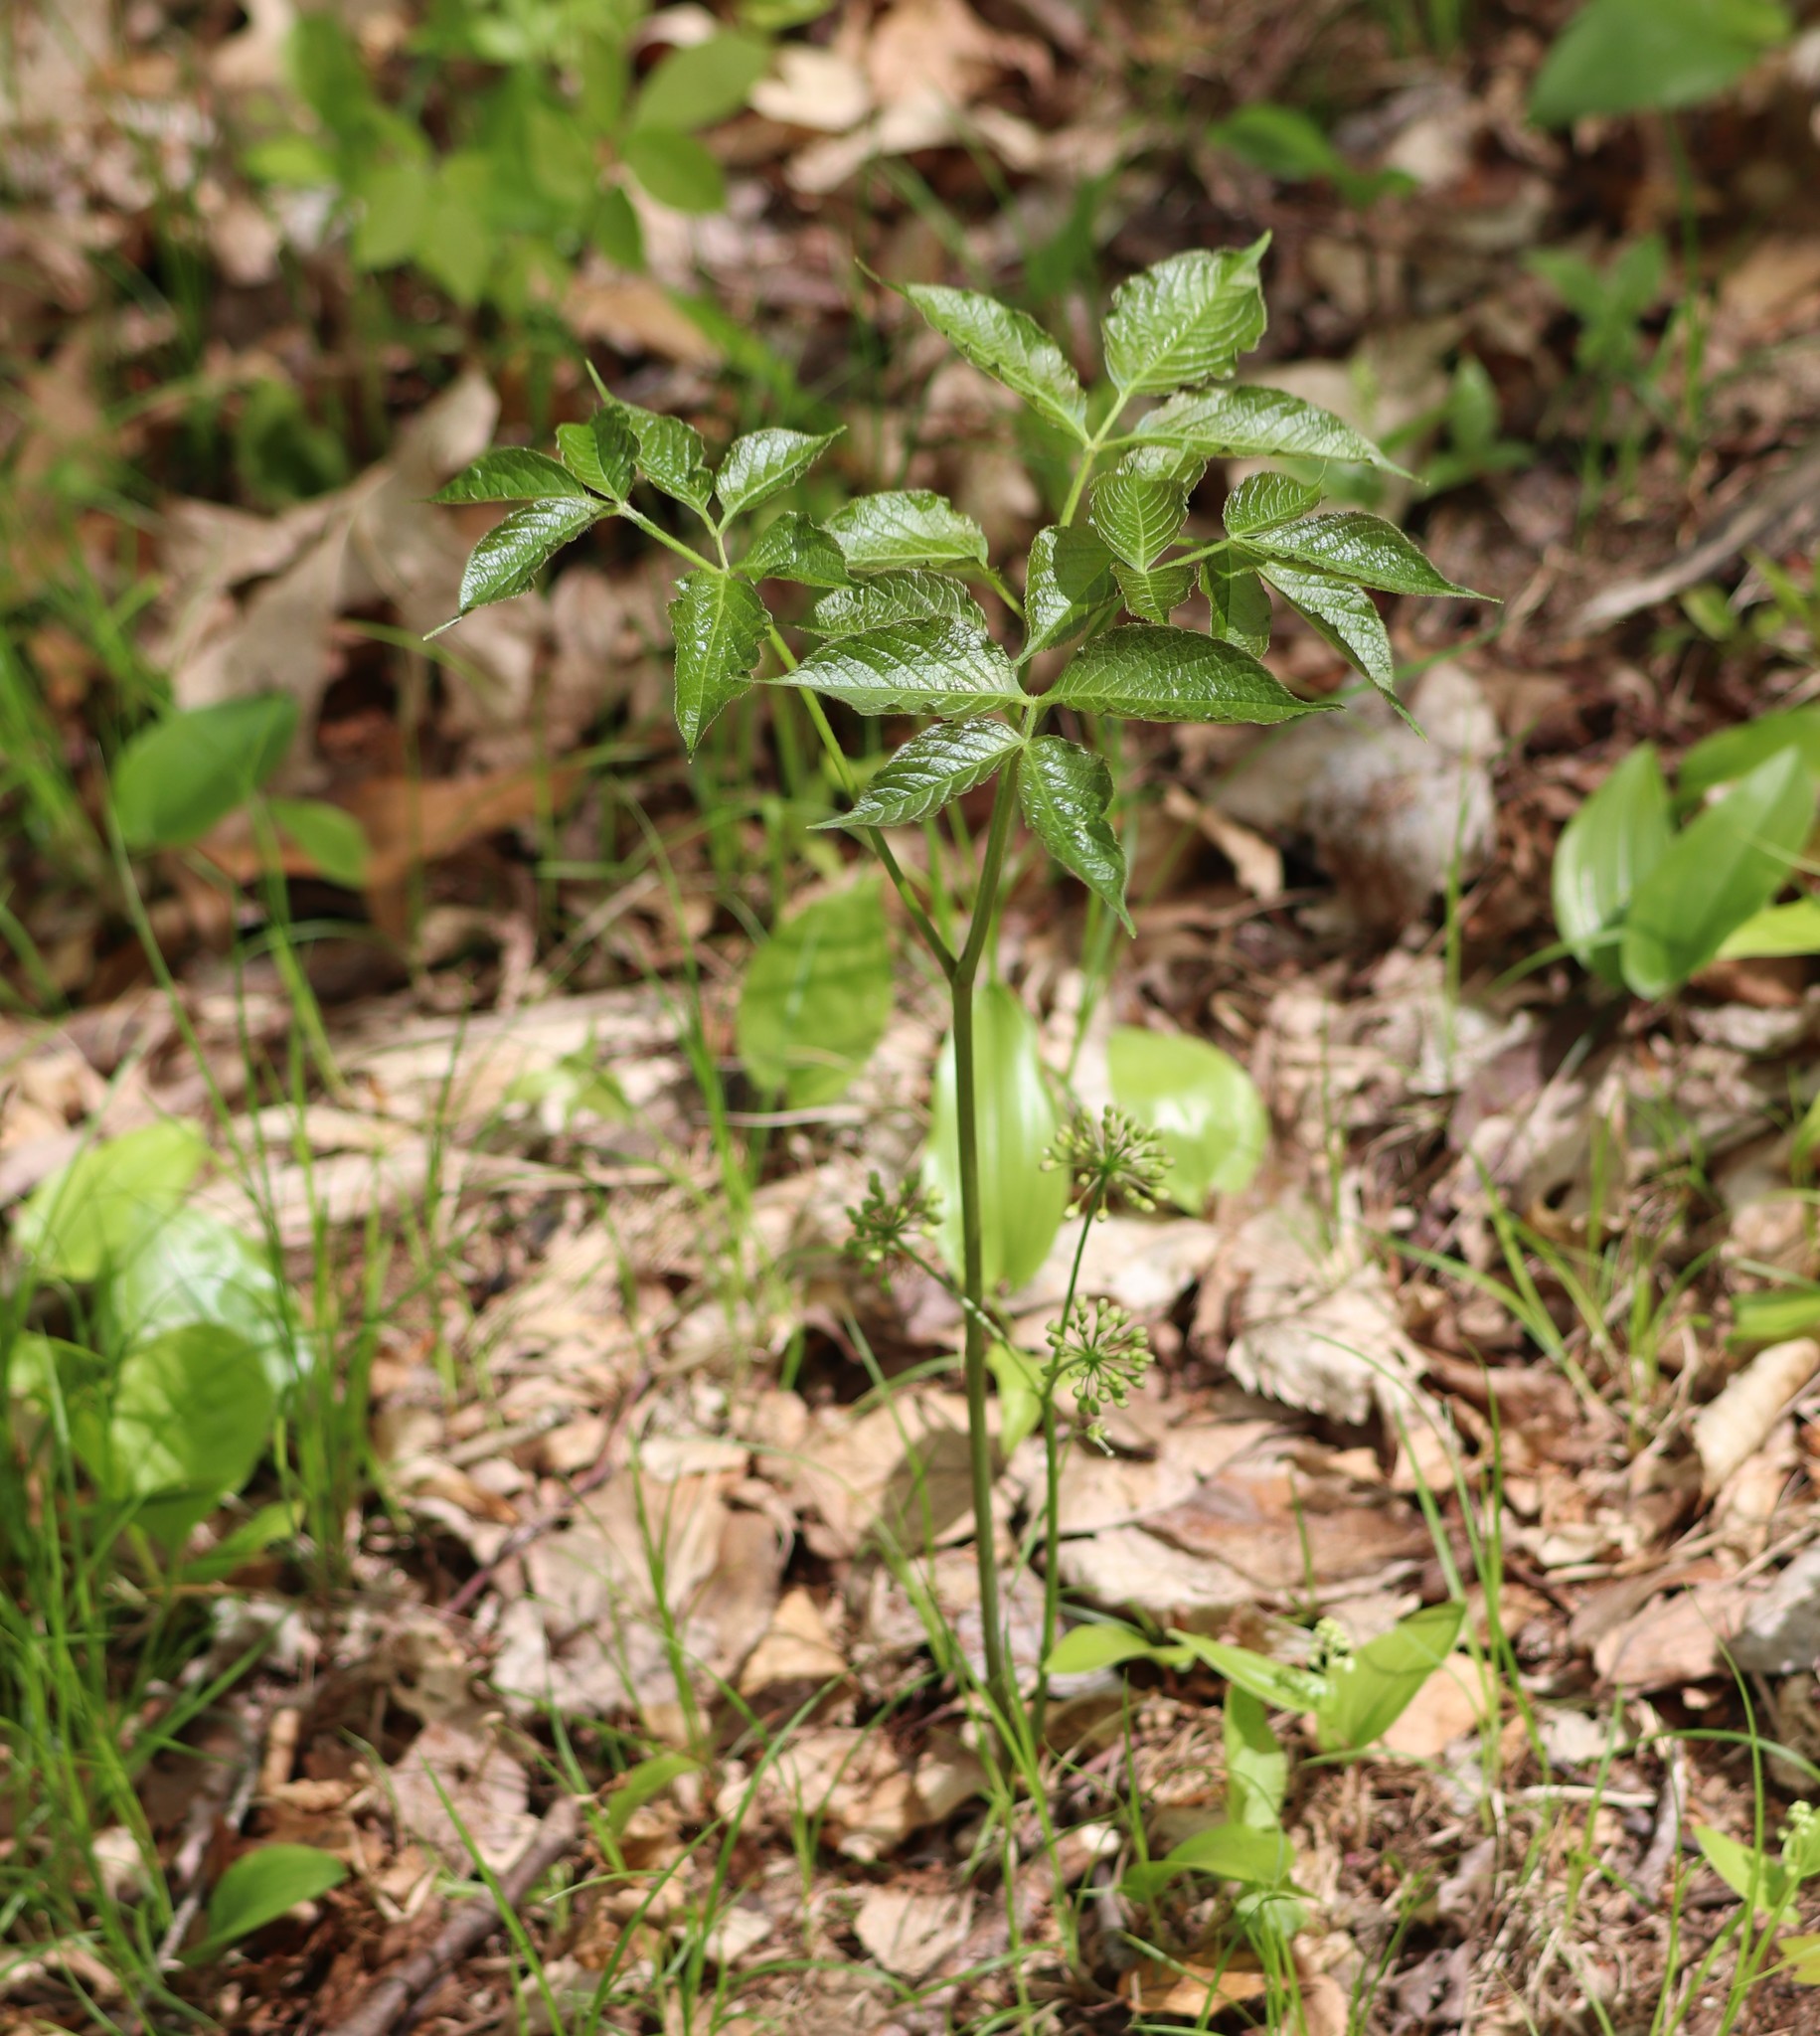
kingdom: Plantae
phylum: Tracheophyta
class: Magnoliopsida
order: Apiales
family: Araliaceae
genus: Aralia
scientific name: Aralia nudicaulis
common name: Wild sarsaparilla
